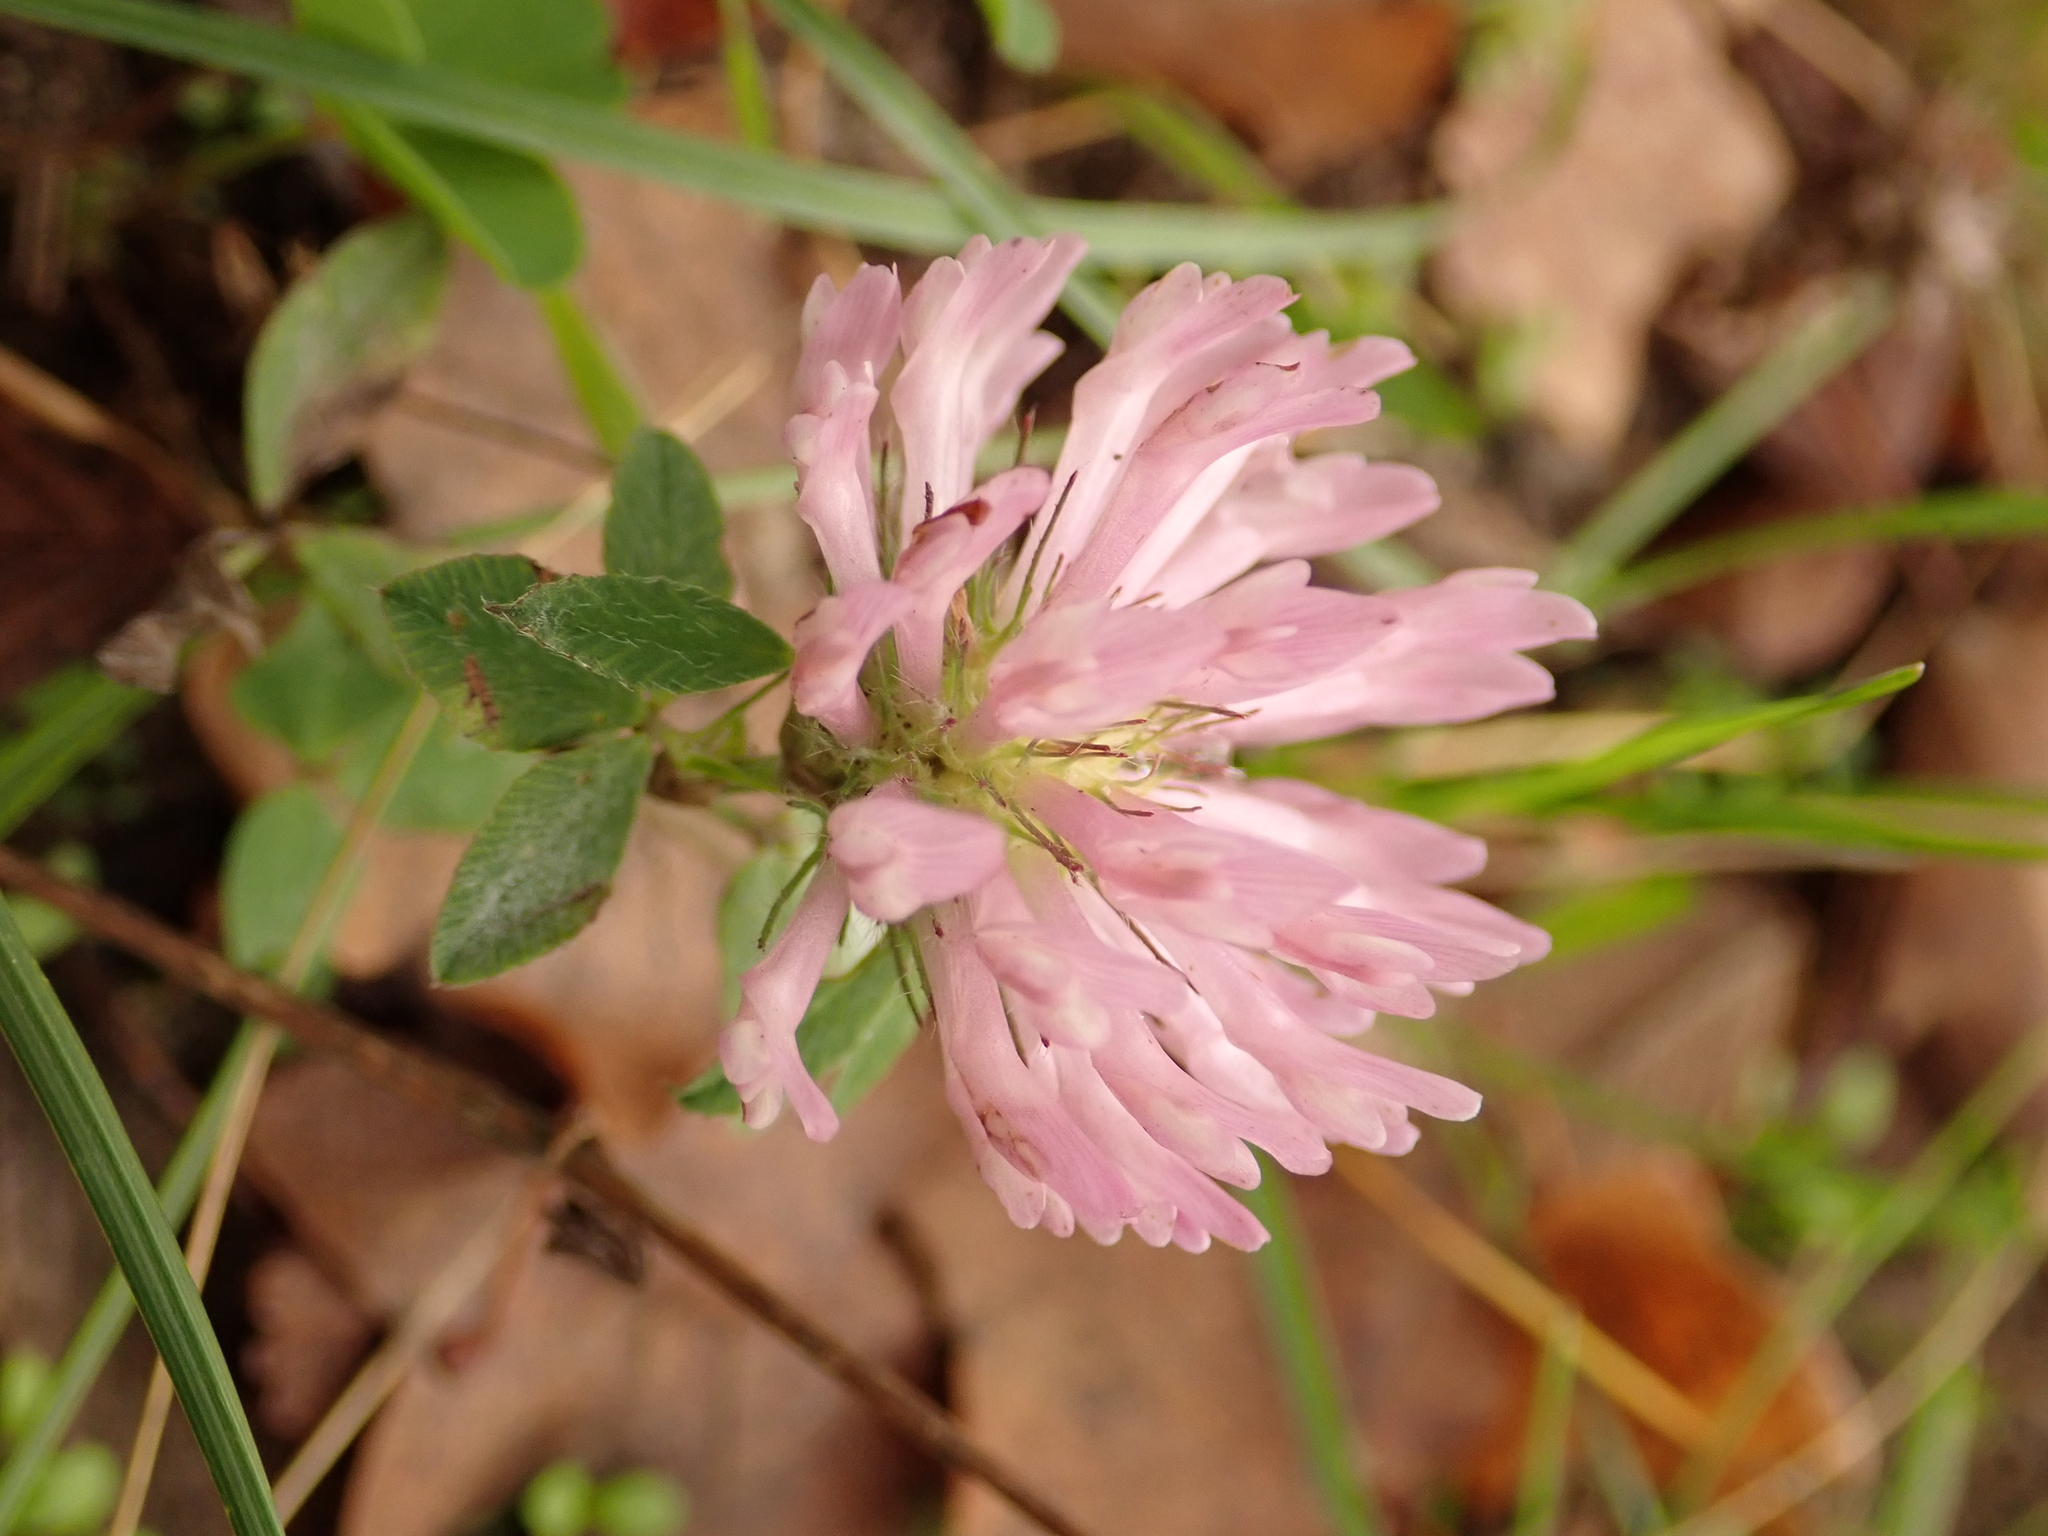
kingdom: Plantae
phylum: Tracheophyta
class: Magnoliopsida
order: Fabales
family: Fabaceae
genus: Trifolium
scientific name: Trifolium pratense
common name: Red clover
